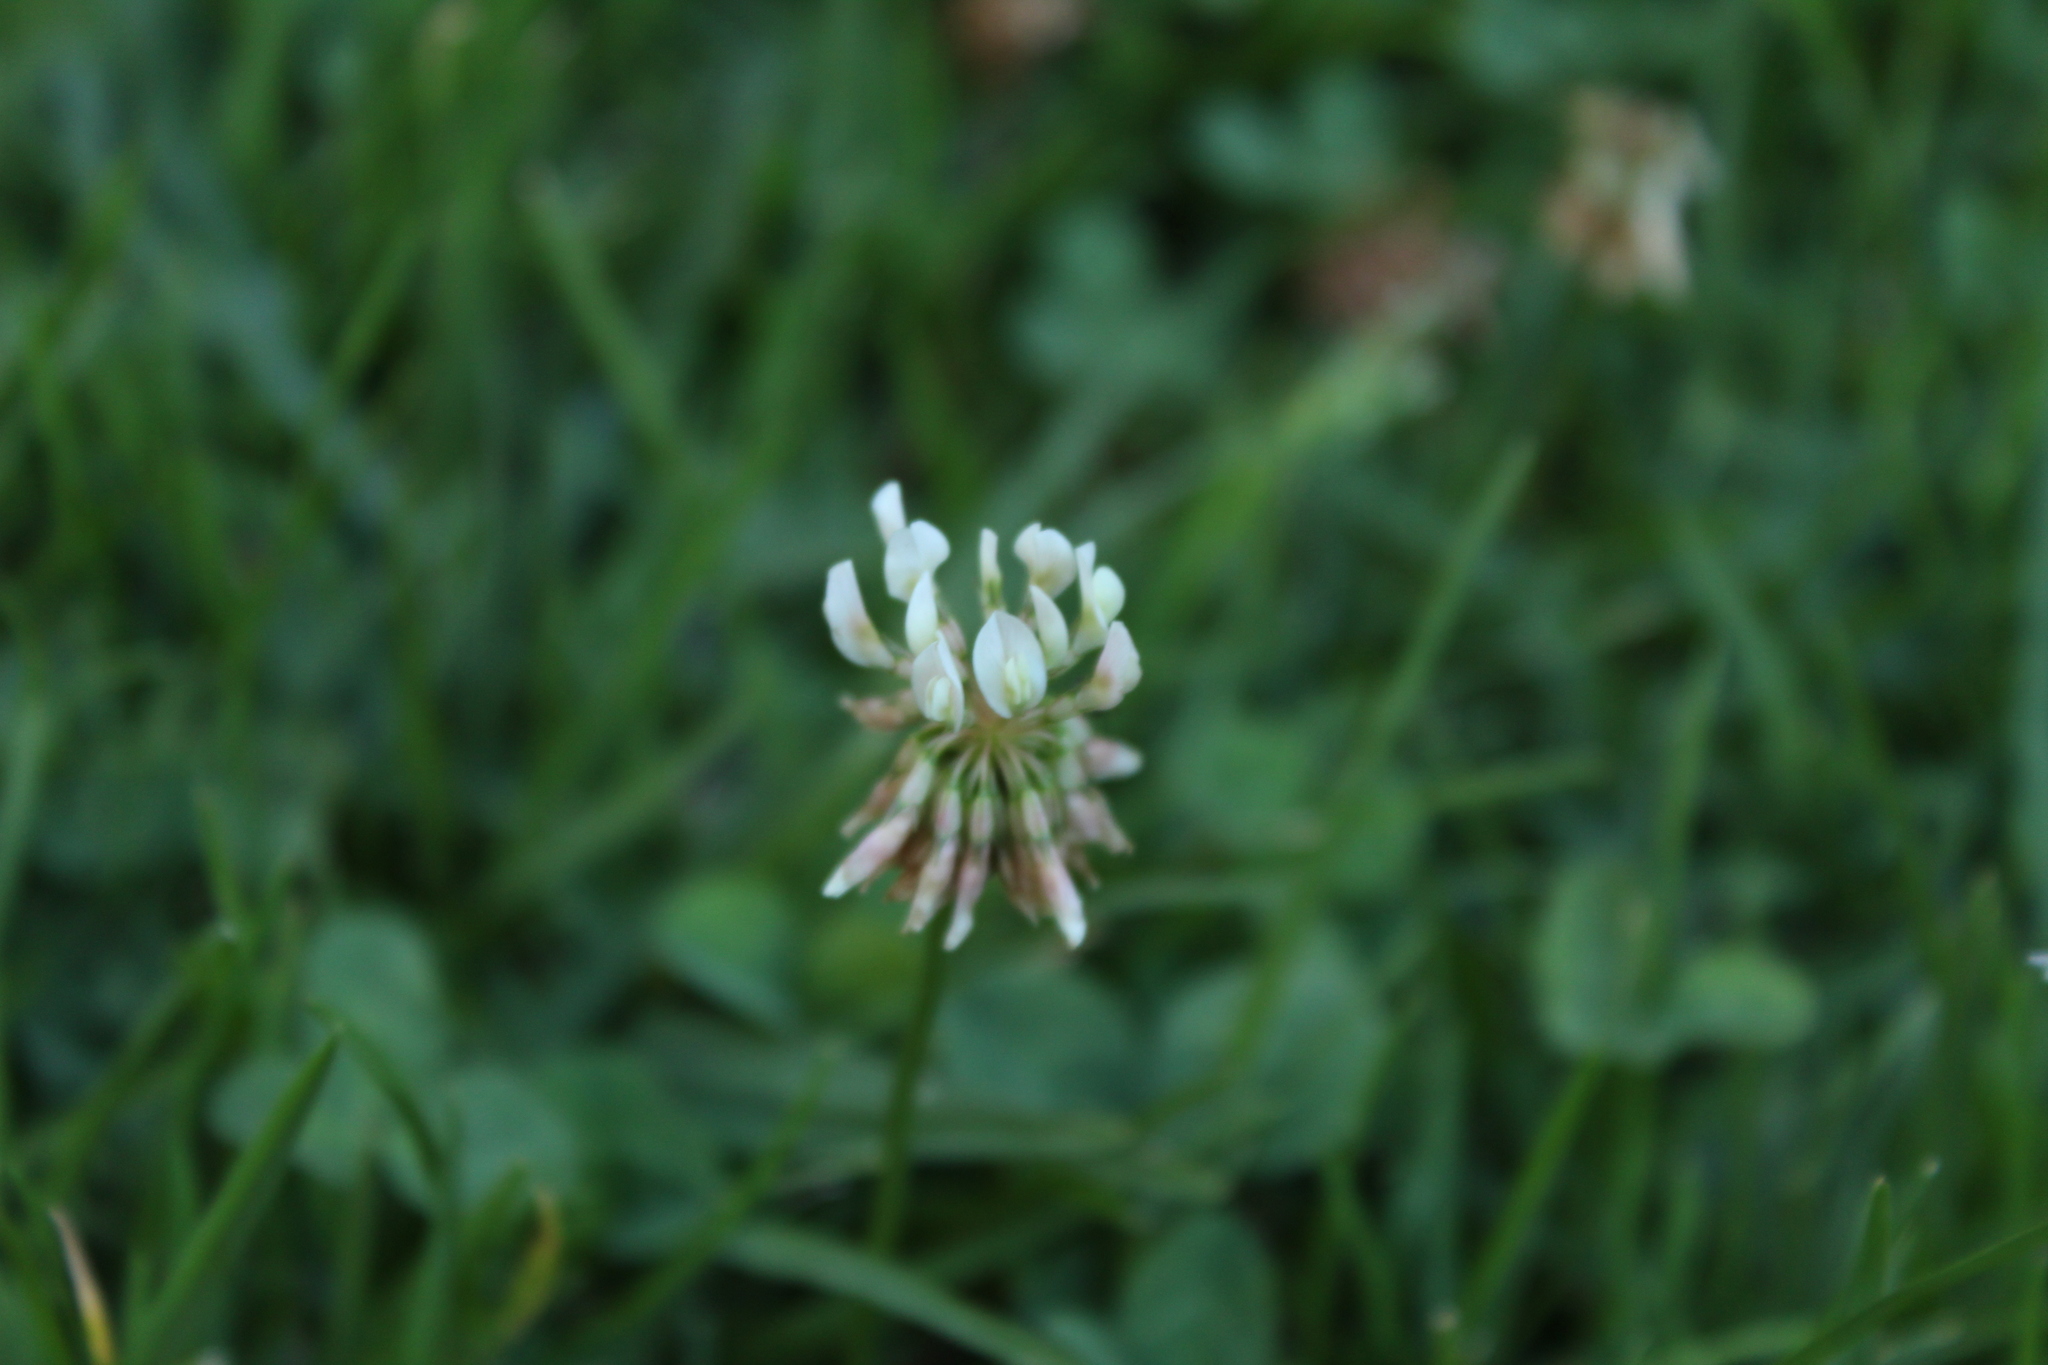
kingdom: Plantae
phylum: Tracheophyta
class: Magnoliopsida
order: Fabales
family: Fabaceae
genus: Trifolium
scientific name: Trifolium repens
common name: White clover
